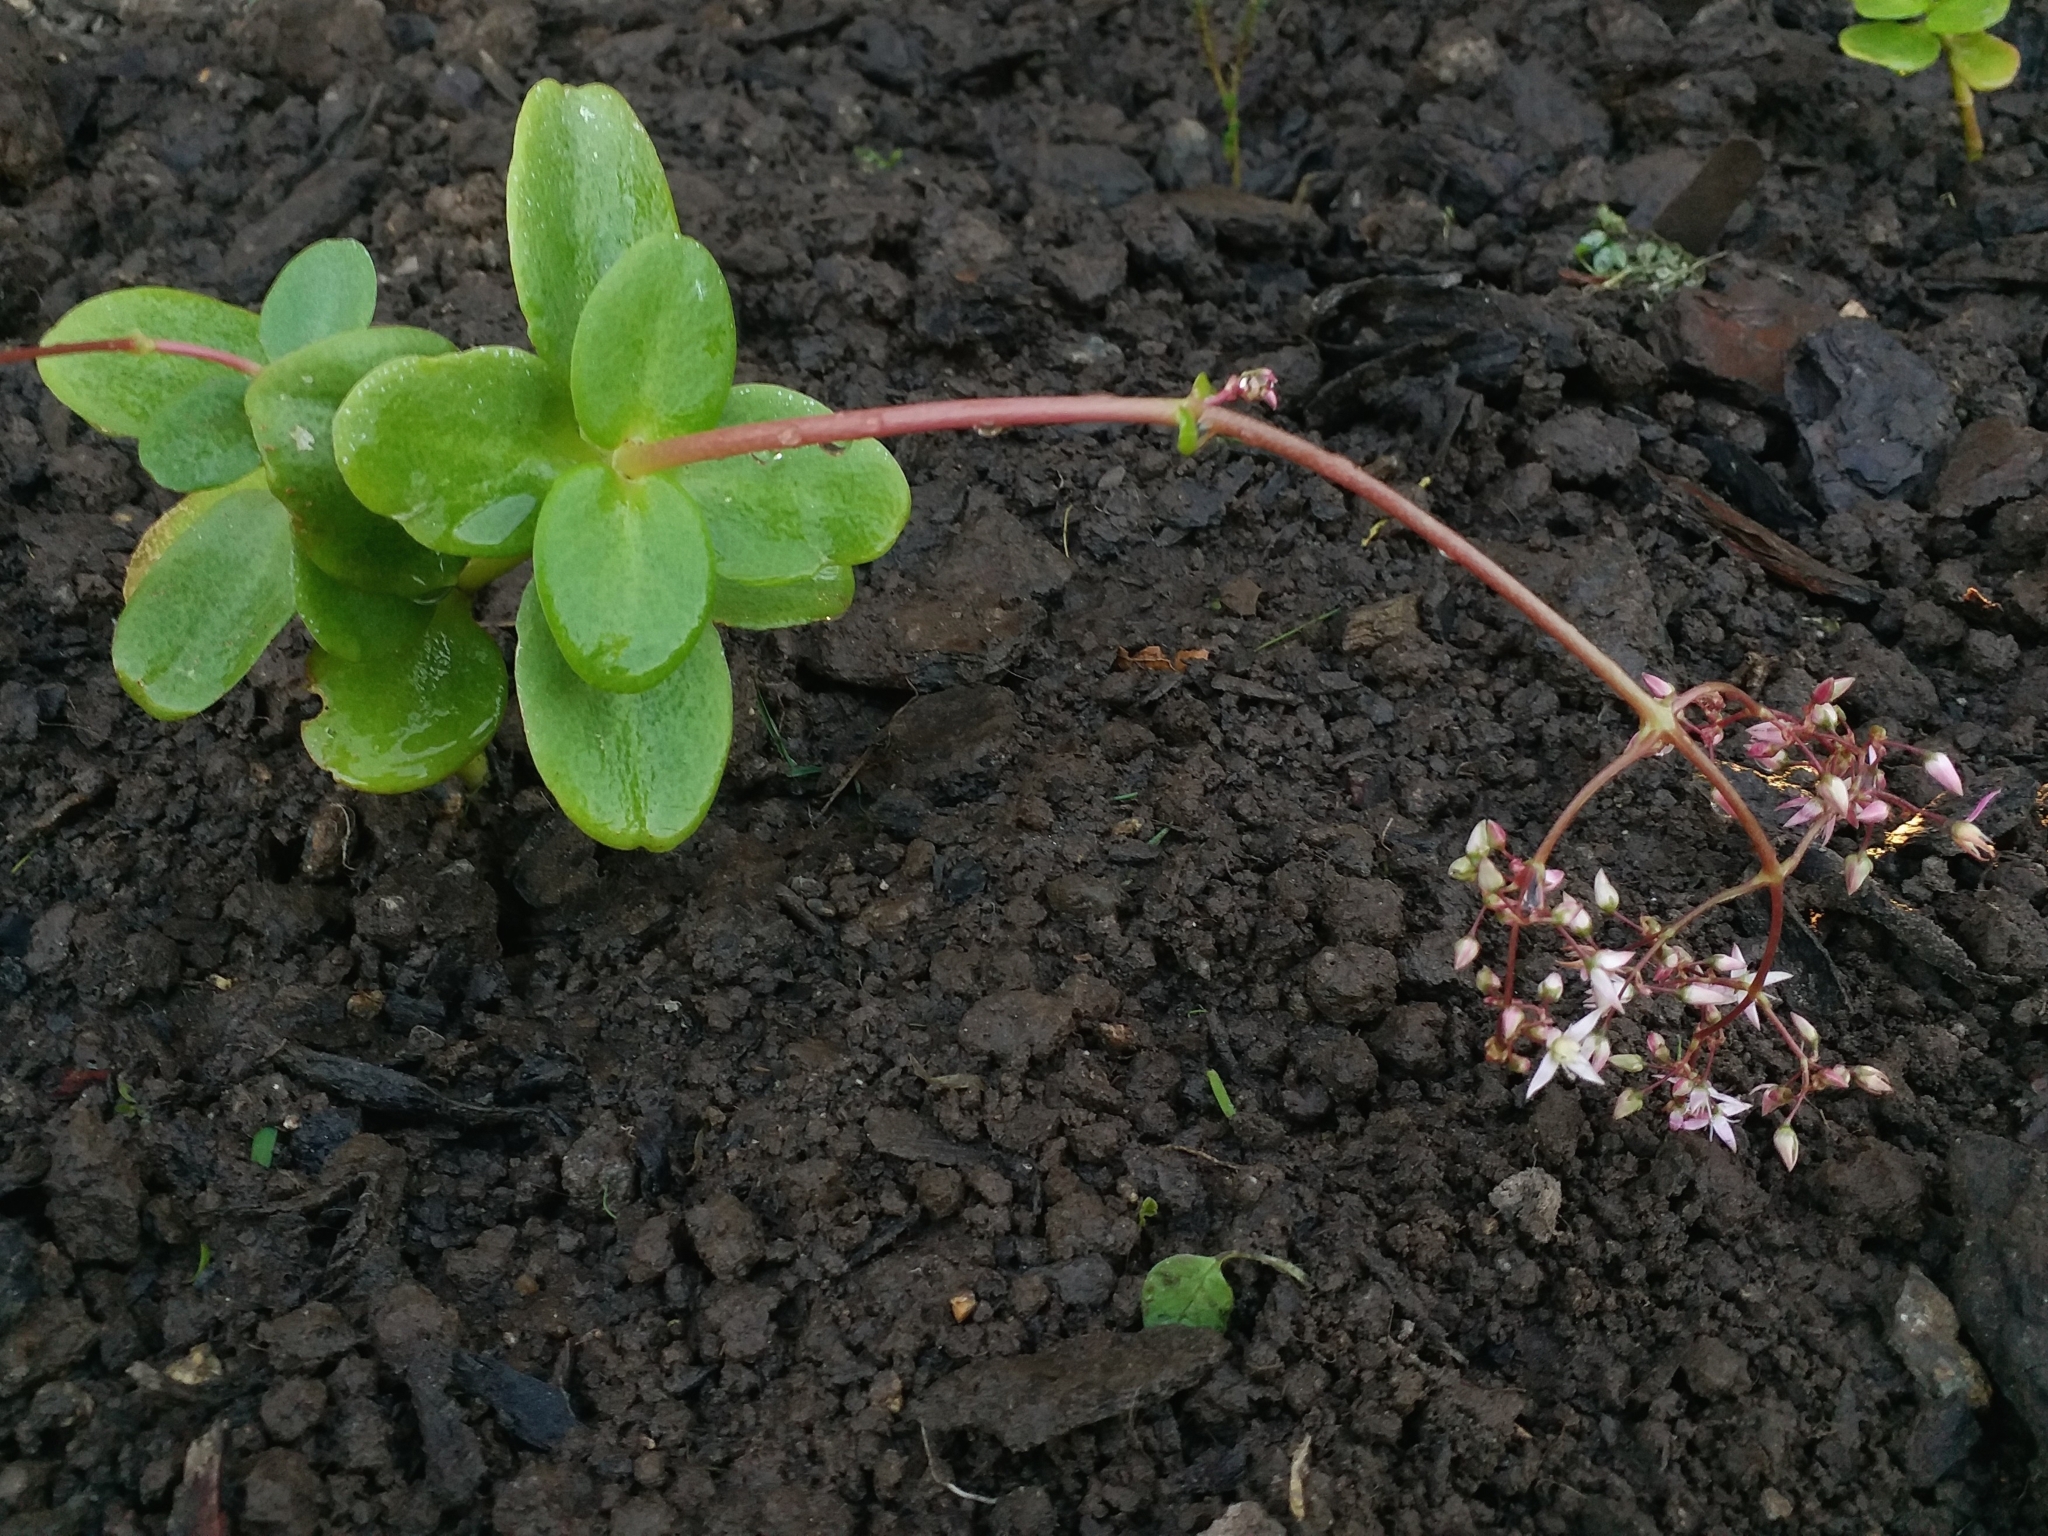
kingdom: Plantae
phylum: Tracheophyta
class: Magnoliopsida
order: Saxifragales
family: Crassulaceae
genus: Crassula
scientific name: Crassula multicava
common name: Cape province pygmyweed
